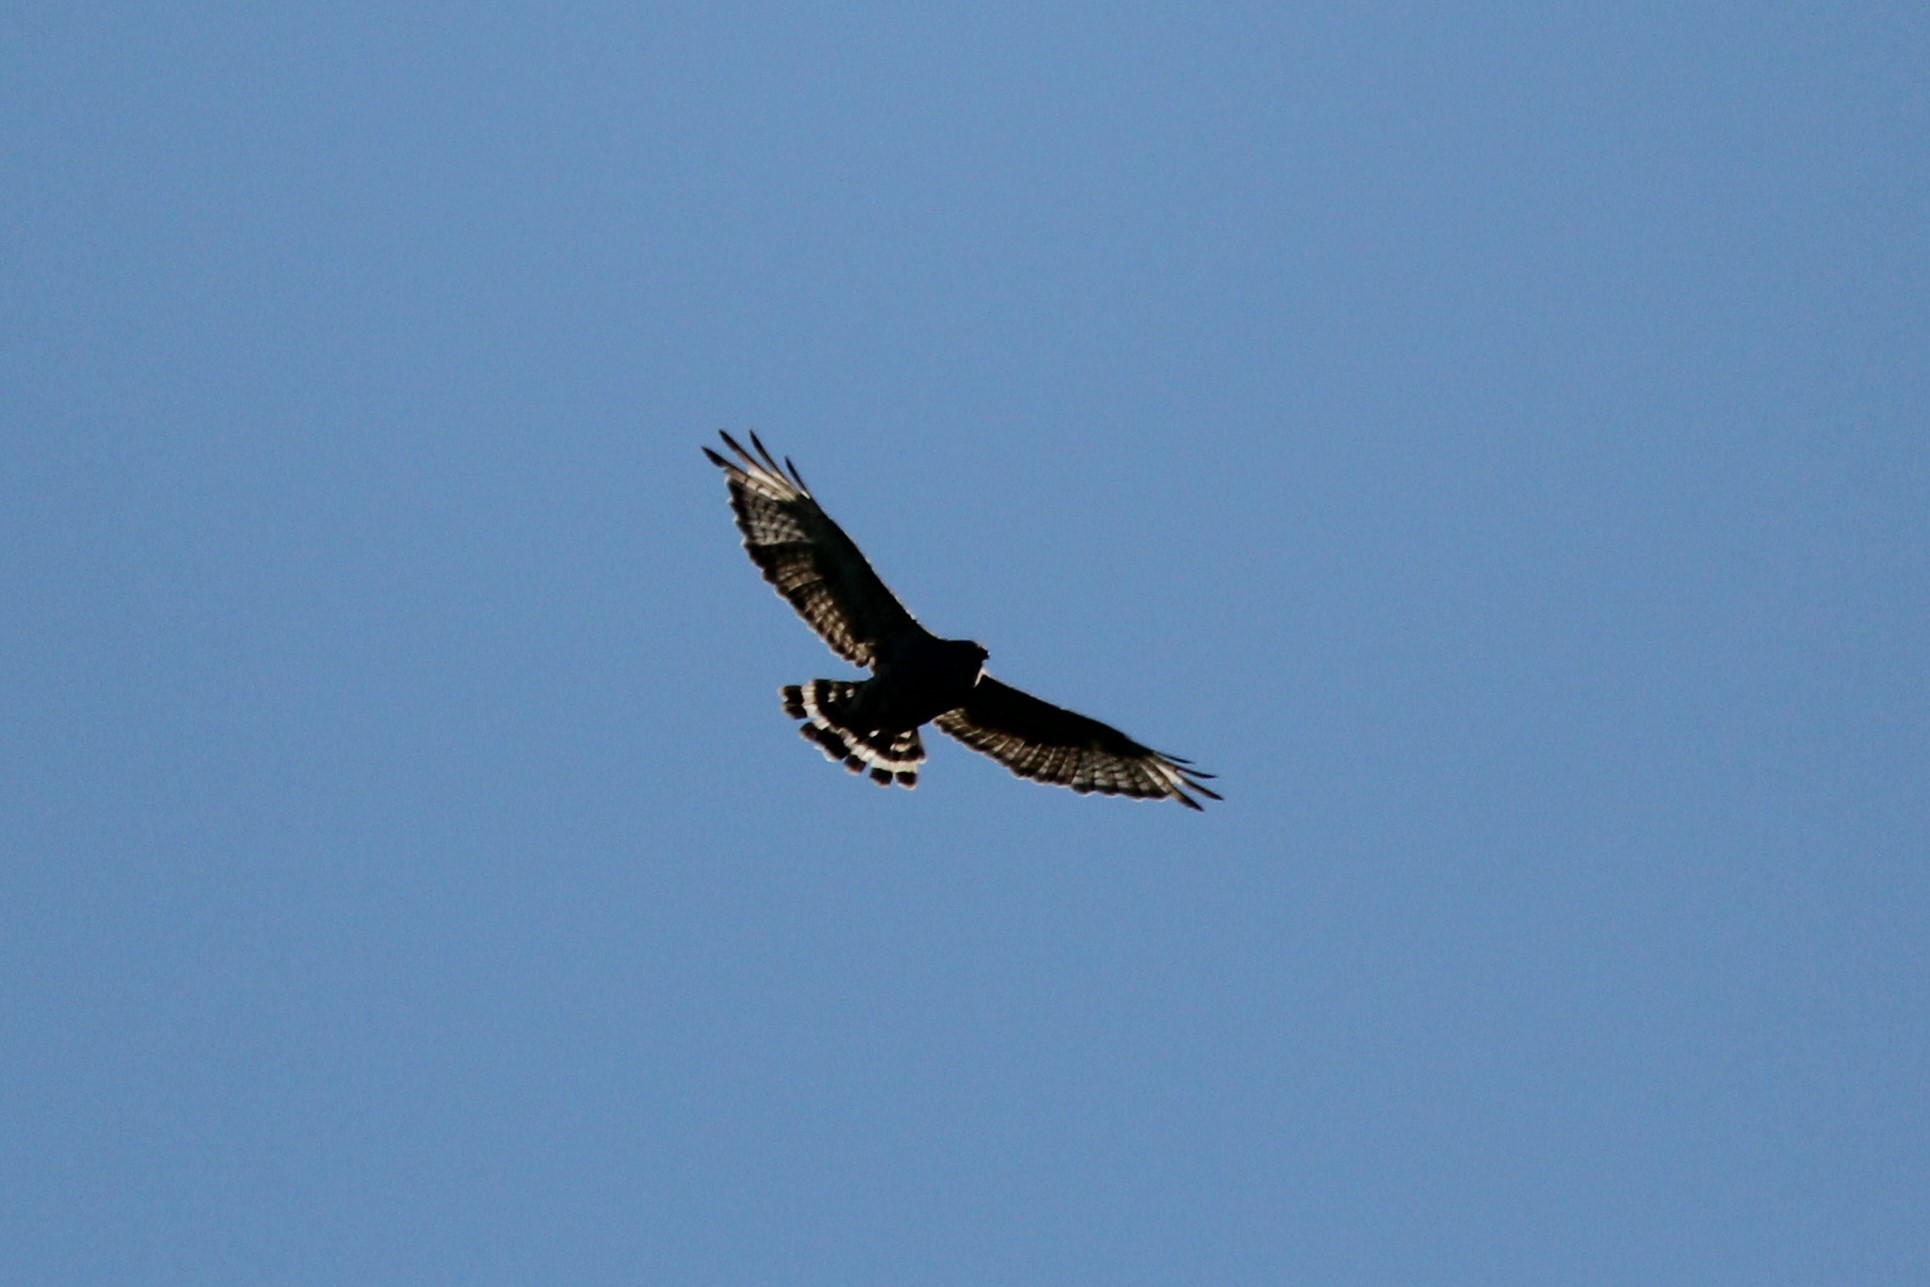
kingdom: Animalia
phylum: Chordata
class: Aves
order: Accipitriformes
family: Accipitridae
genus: Buteo
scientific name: Buteo platypterus
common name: Broad-winged hawk
